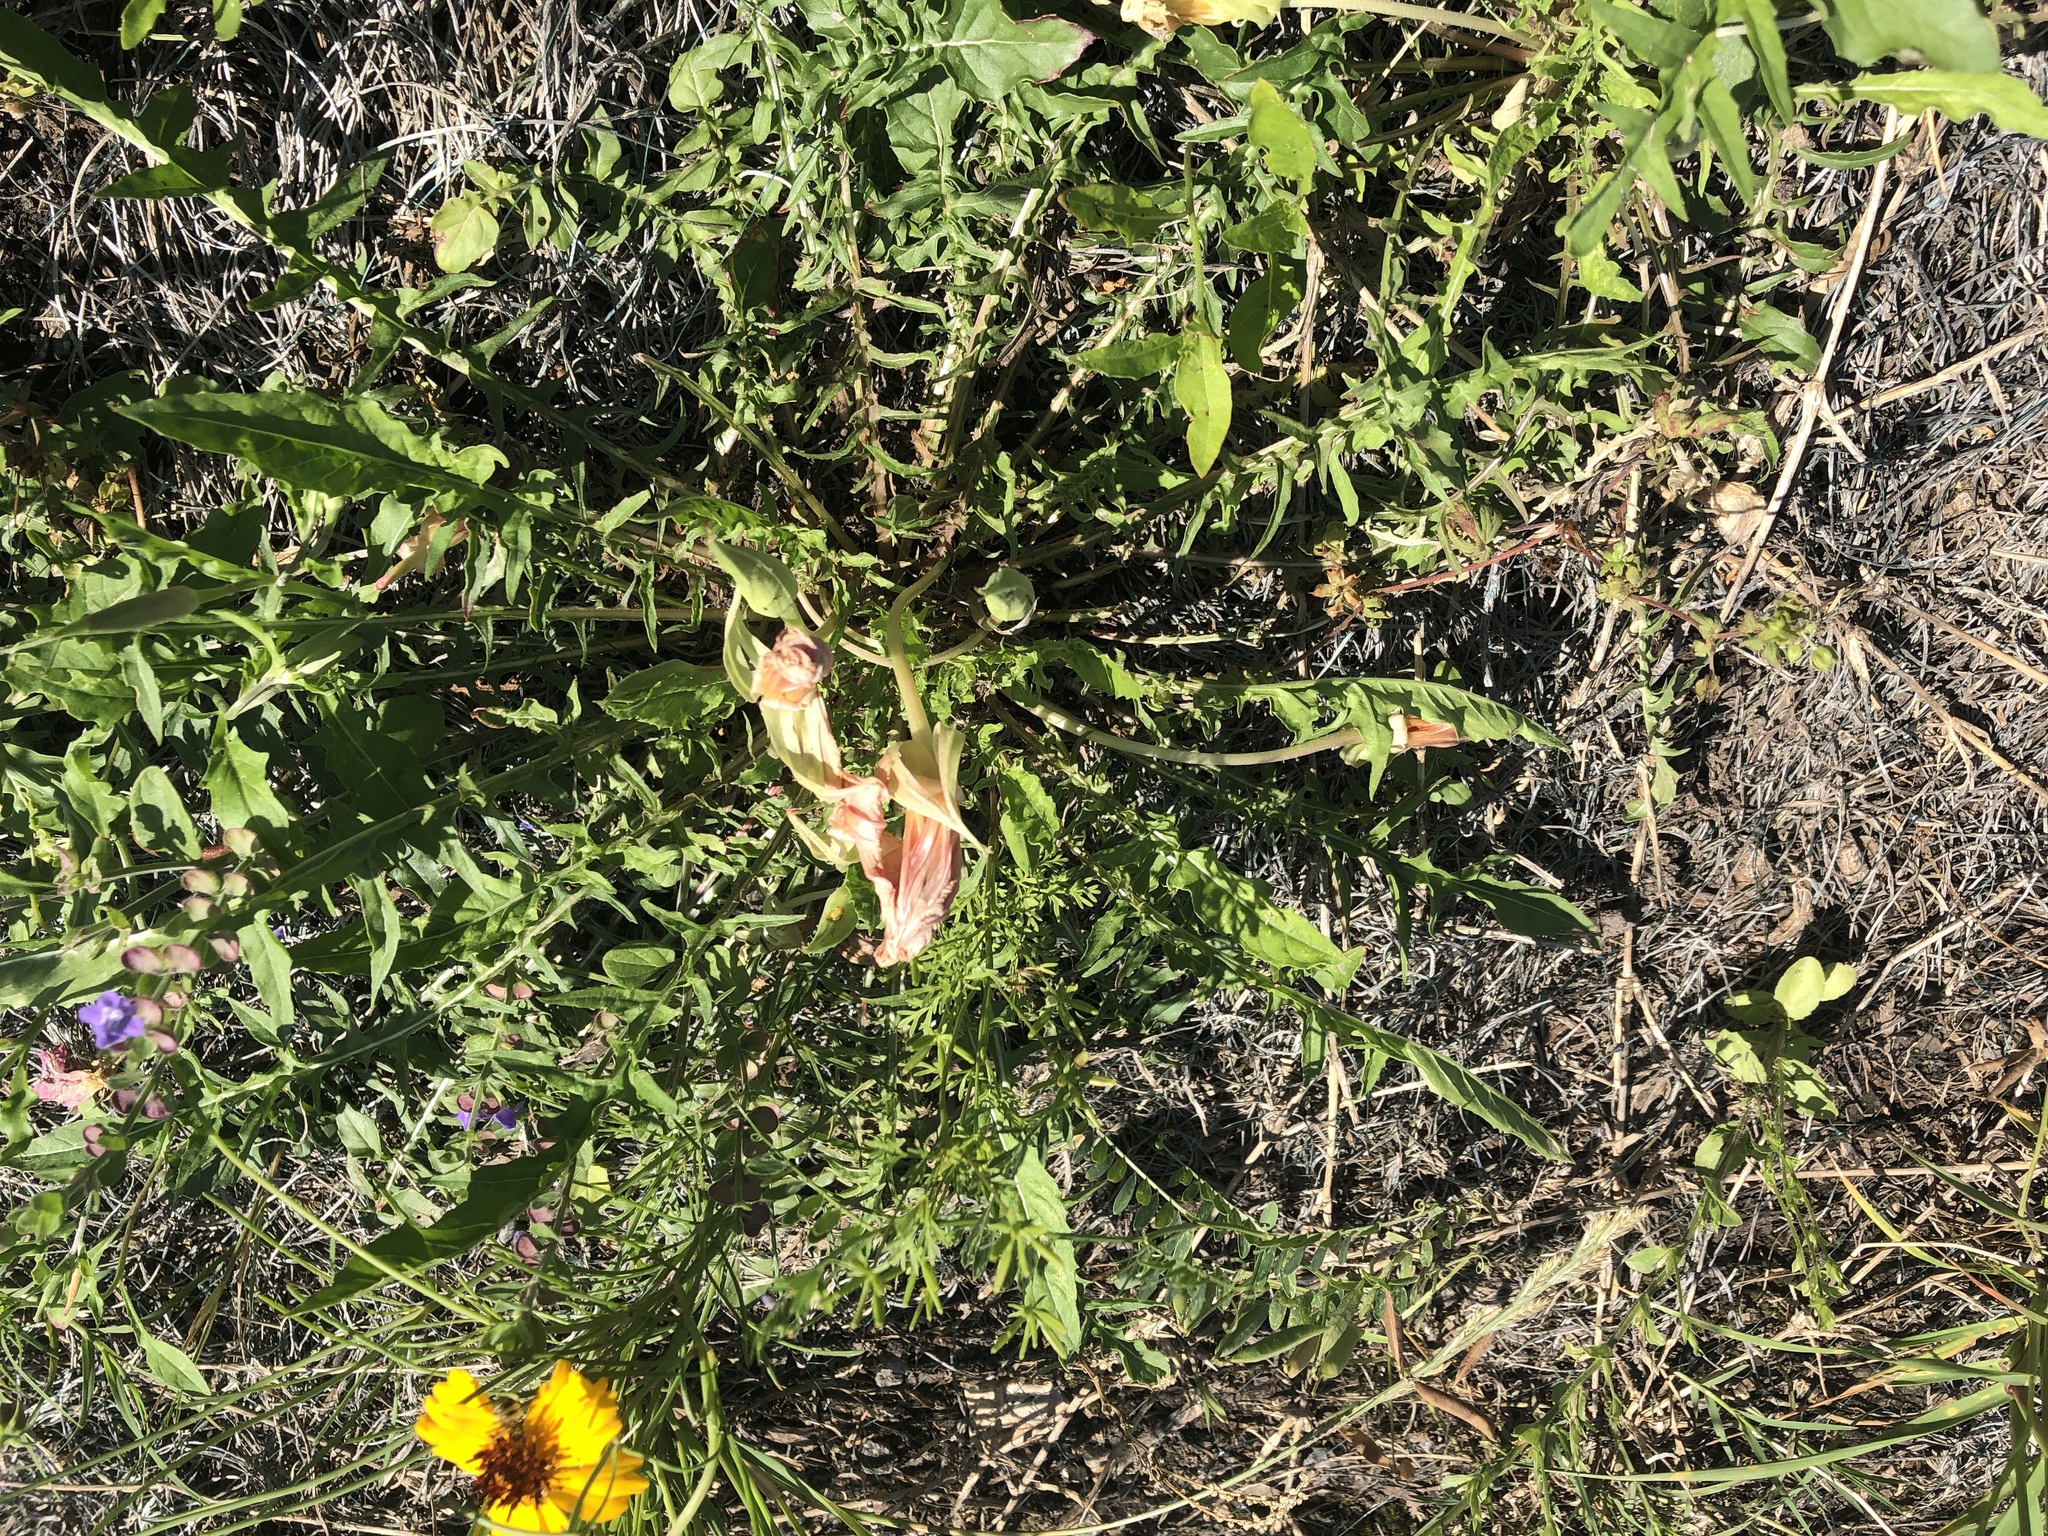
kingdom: Plantae
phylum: Tracheophyta
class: Magnoliopsida
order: Myrtales
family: Onagraceae
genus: Oenothera
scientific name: Oenothera triloba
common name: Sessile evening-primrose
